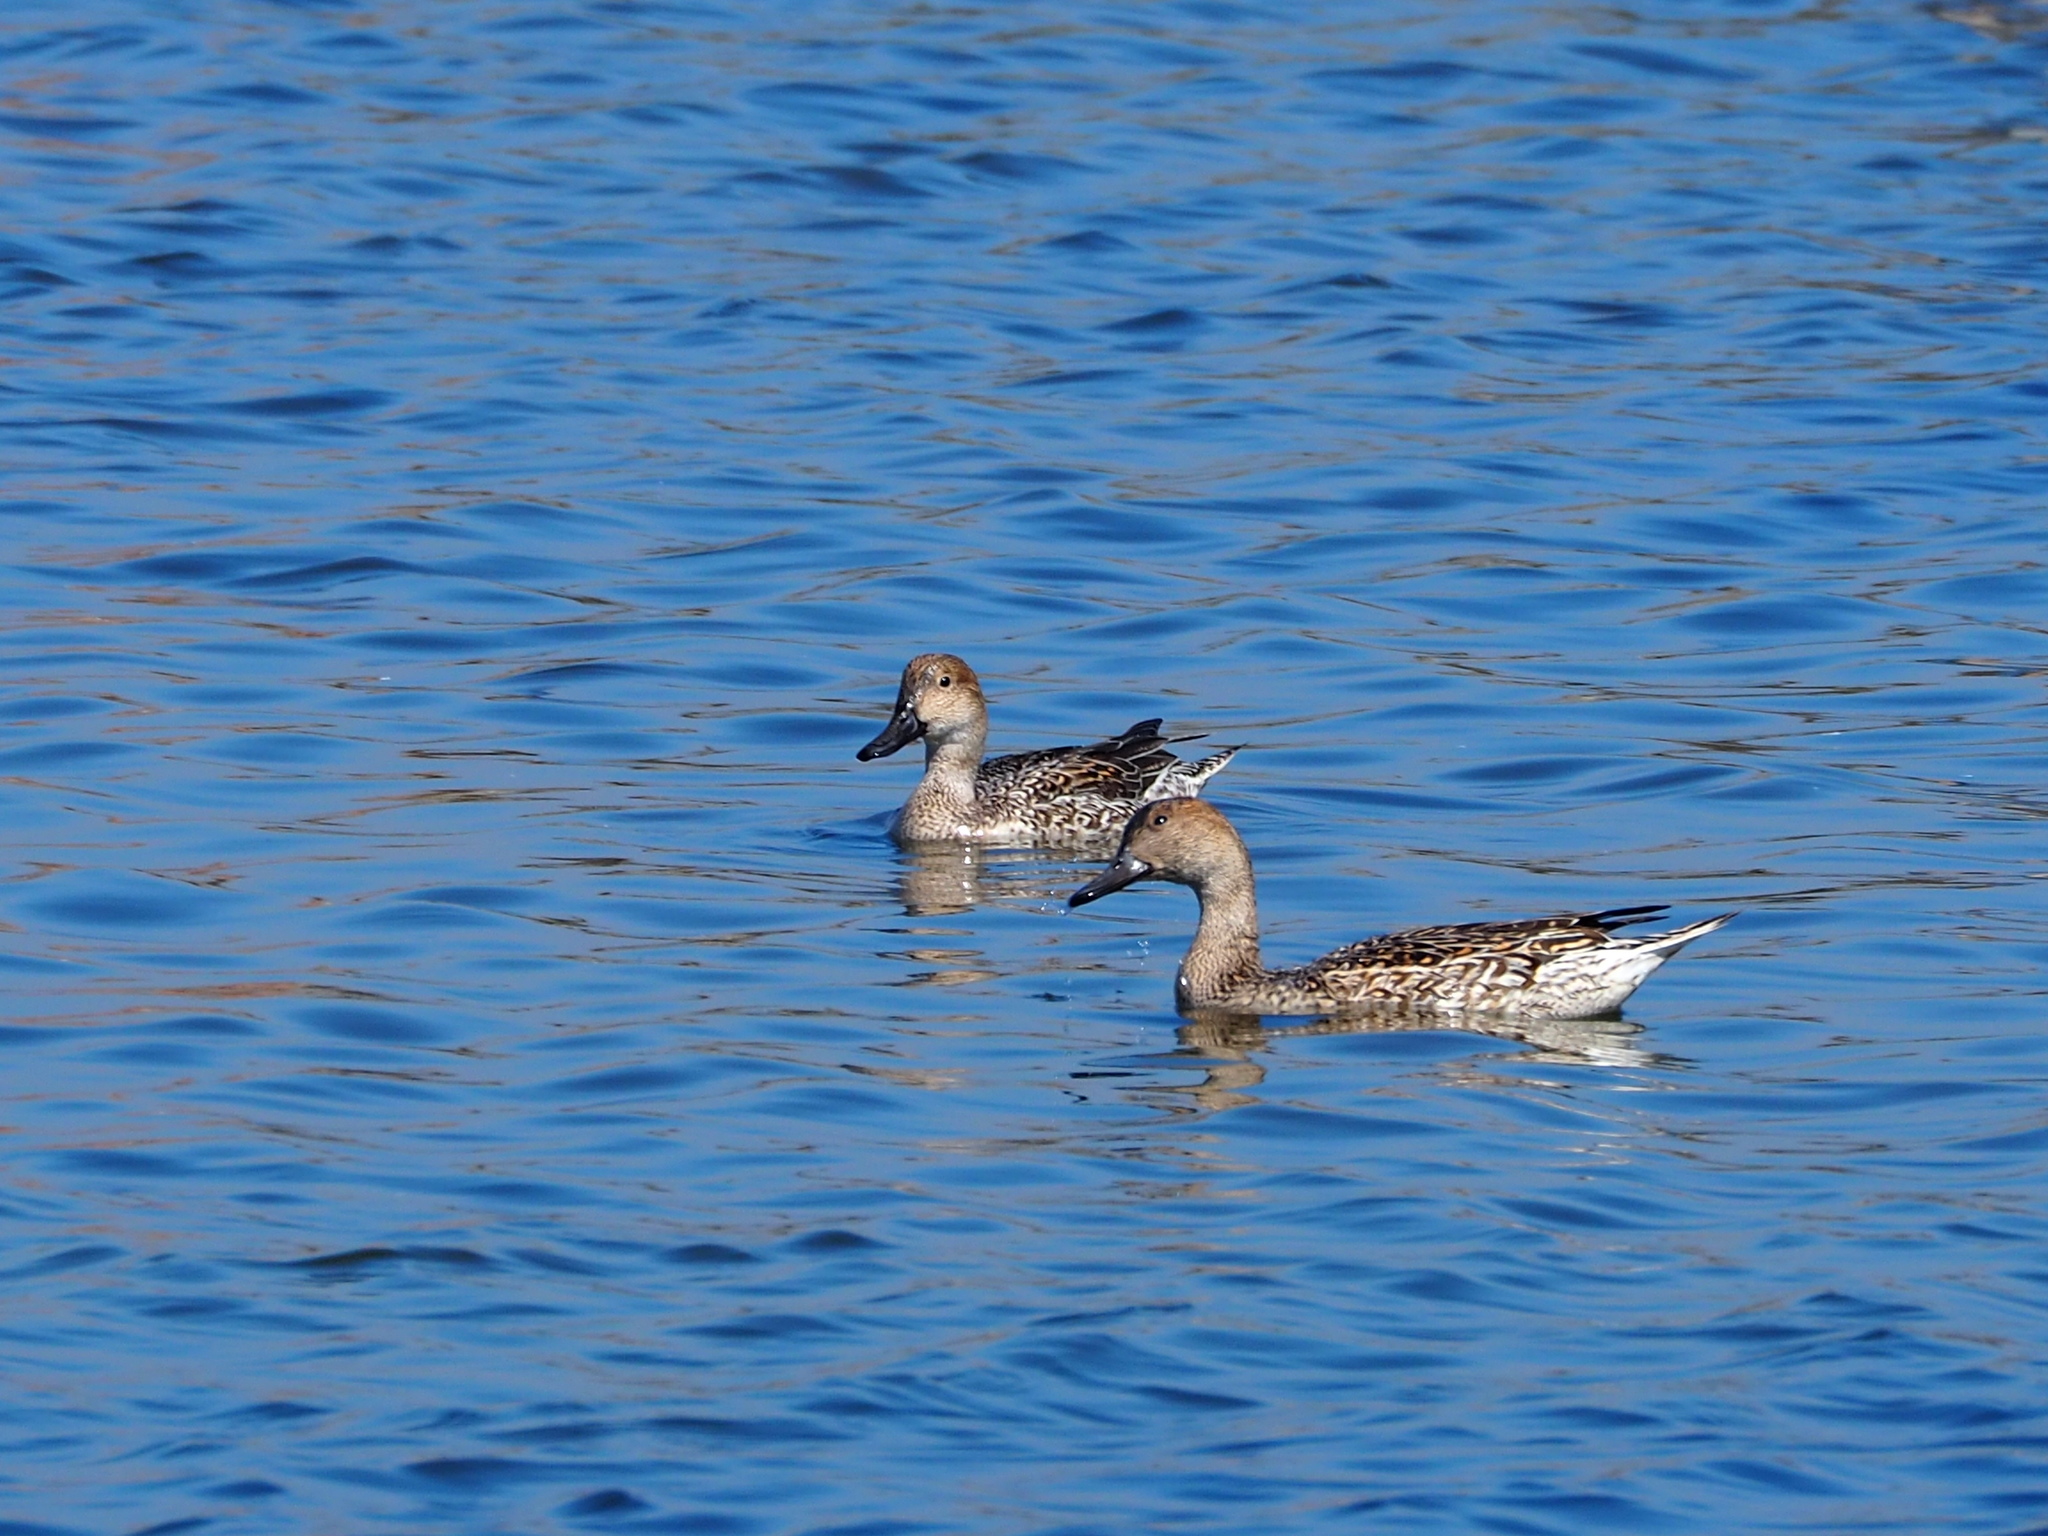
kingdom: Animalia
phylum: Chordata
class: Aves
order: Anseriformes
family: Anatidae
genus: Anas
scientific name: Anas acuta
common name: Northern pintail
